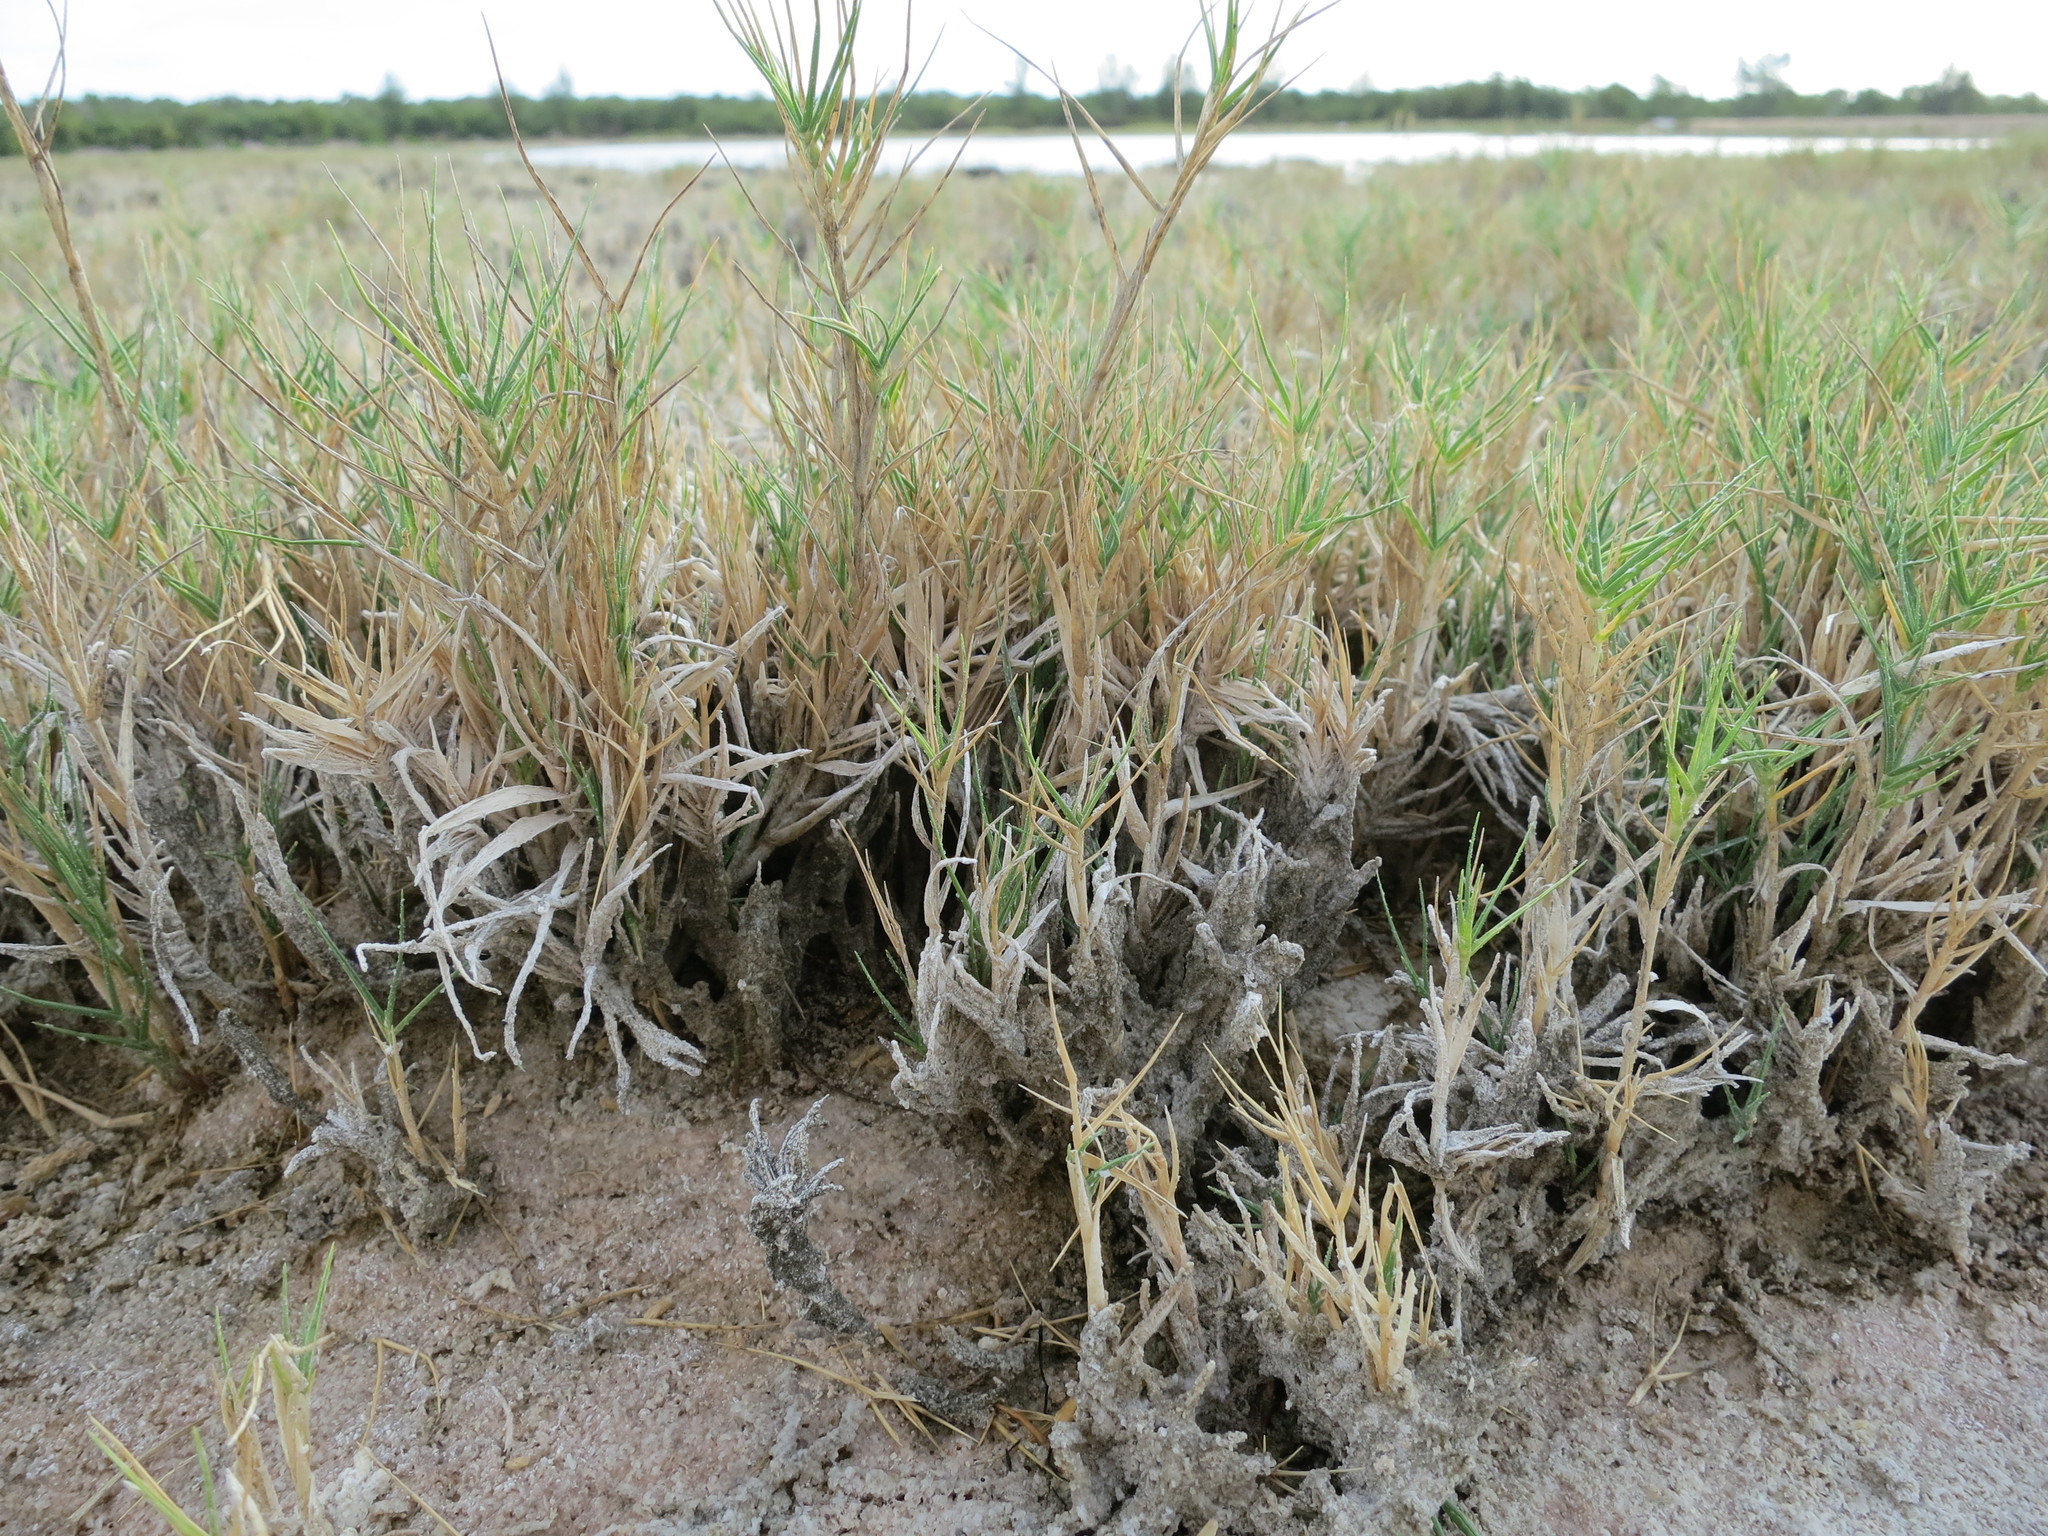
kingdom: Plantae
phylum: Tracheophyta
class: Liliopsida
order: Poales
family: Poaceae
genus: Sporobolus
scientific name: Sporobolus virginicus
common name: Beach dropseed
